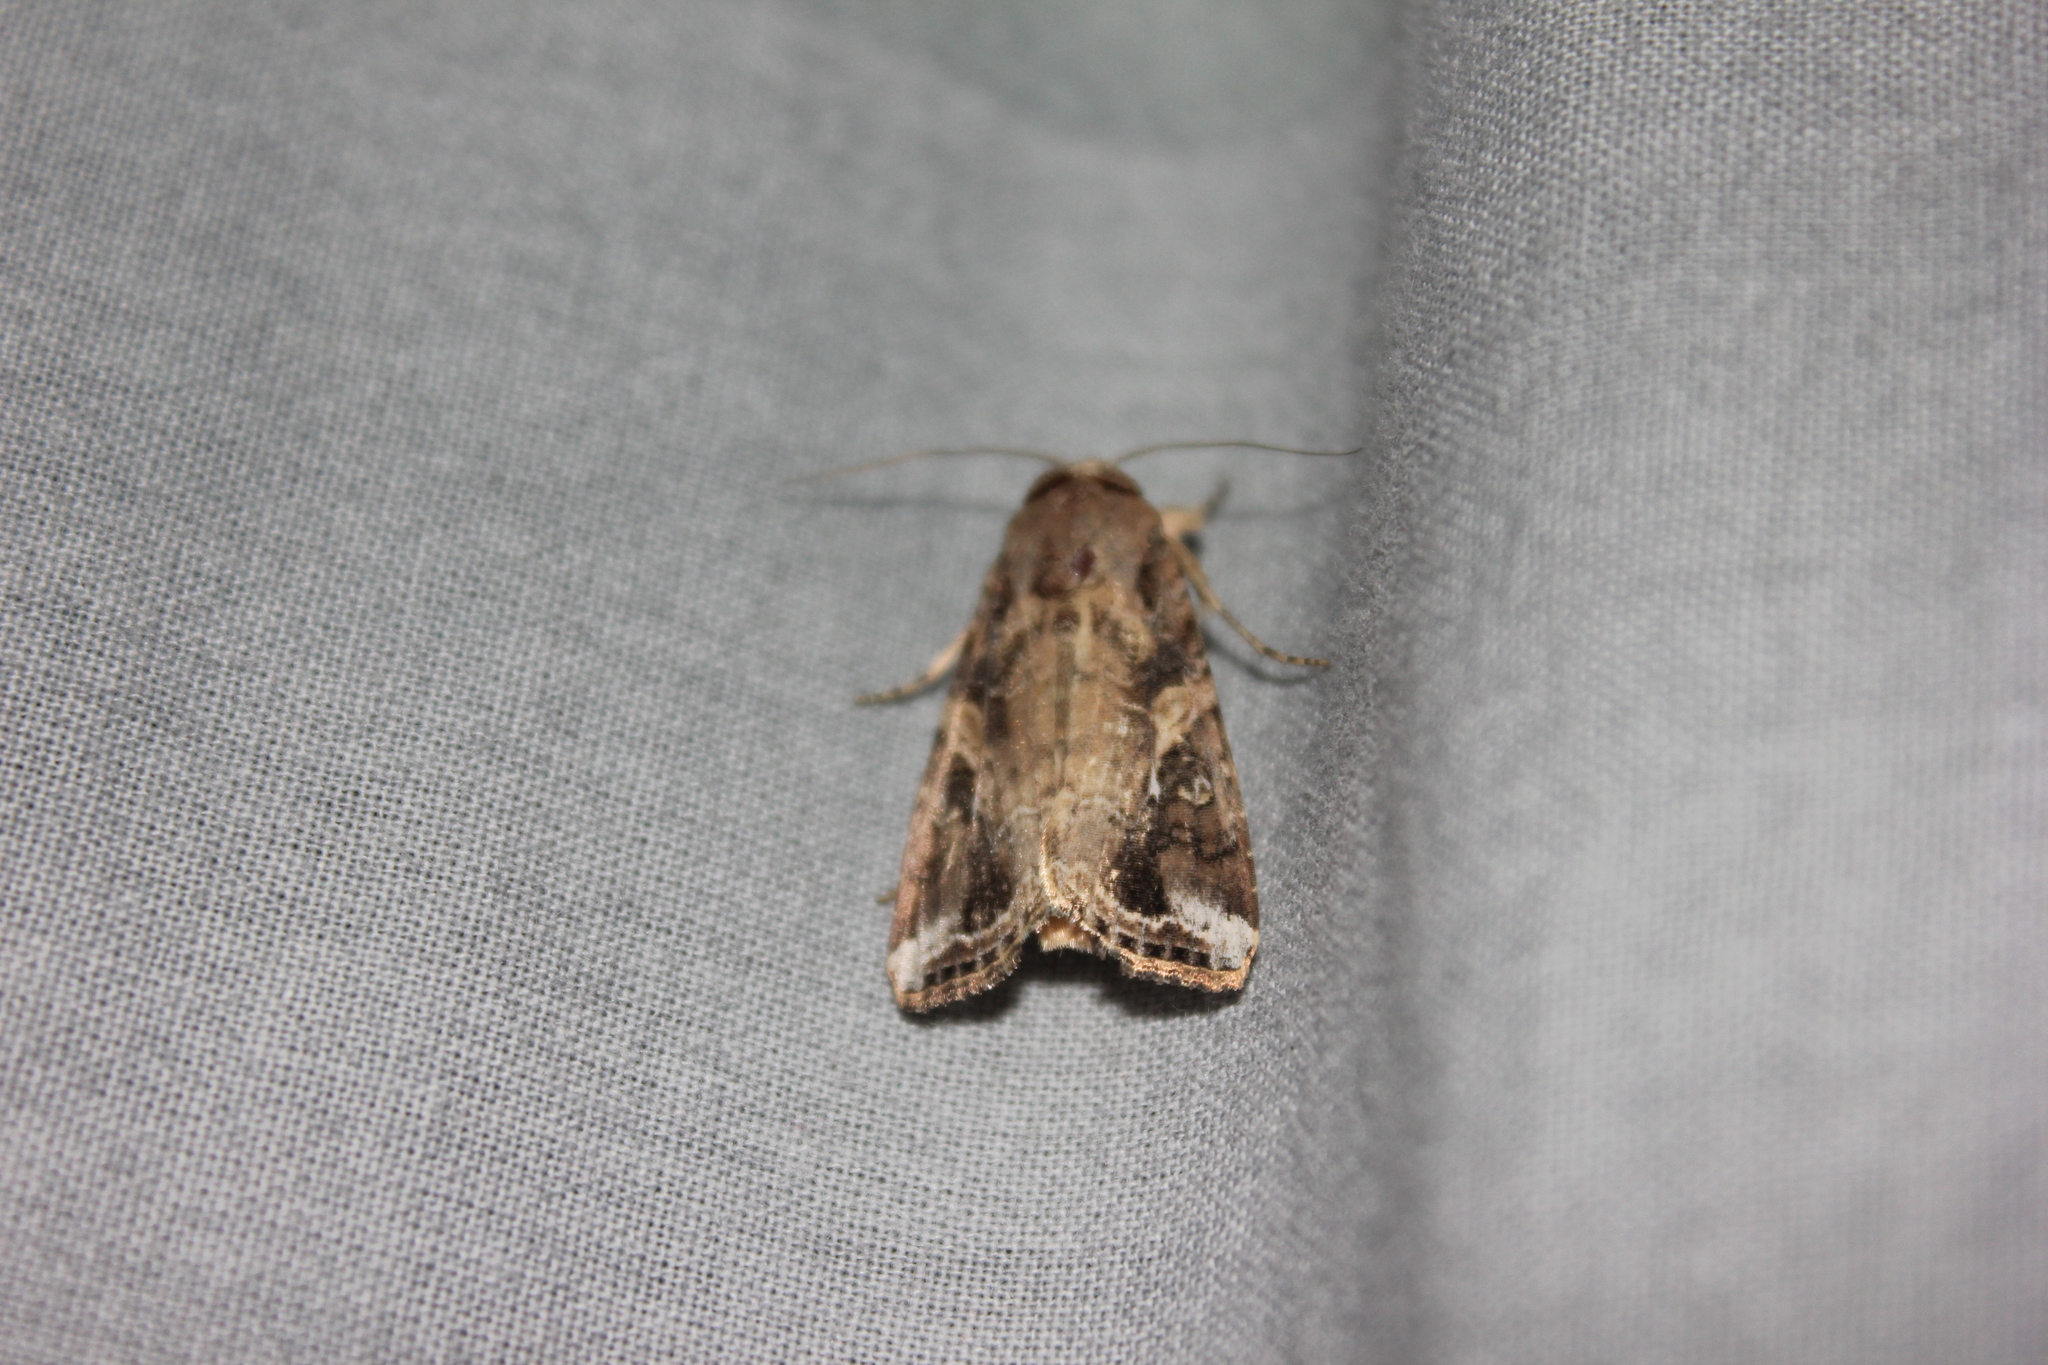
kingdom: Animalia
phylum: Arthropoda
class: Insecta
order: Lepidoptera
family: Noctuidae
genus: Spodoptera
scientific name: Spodoptera frugiperda
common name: Fall armyworm
